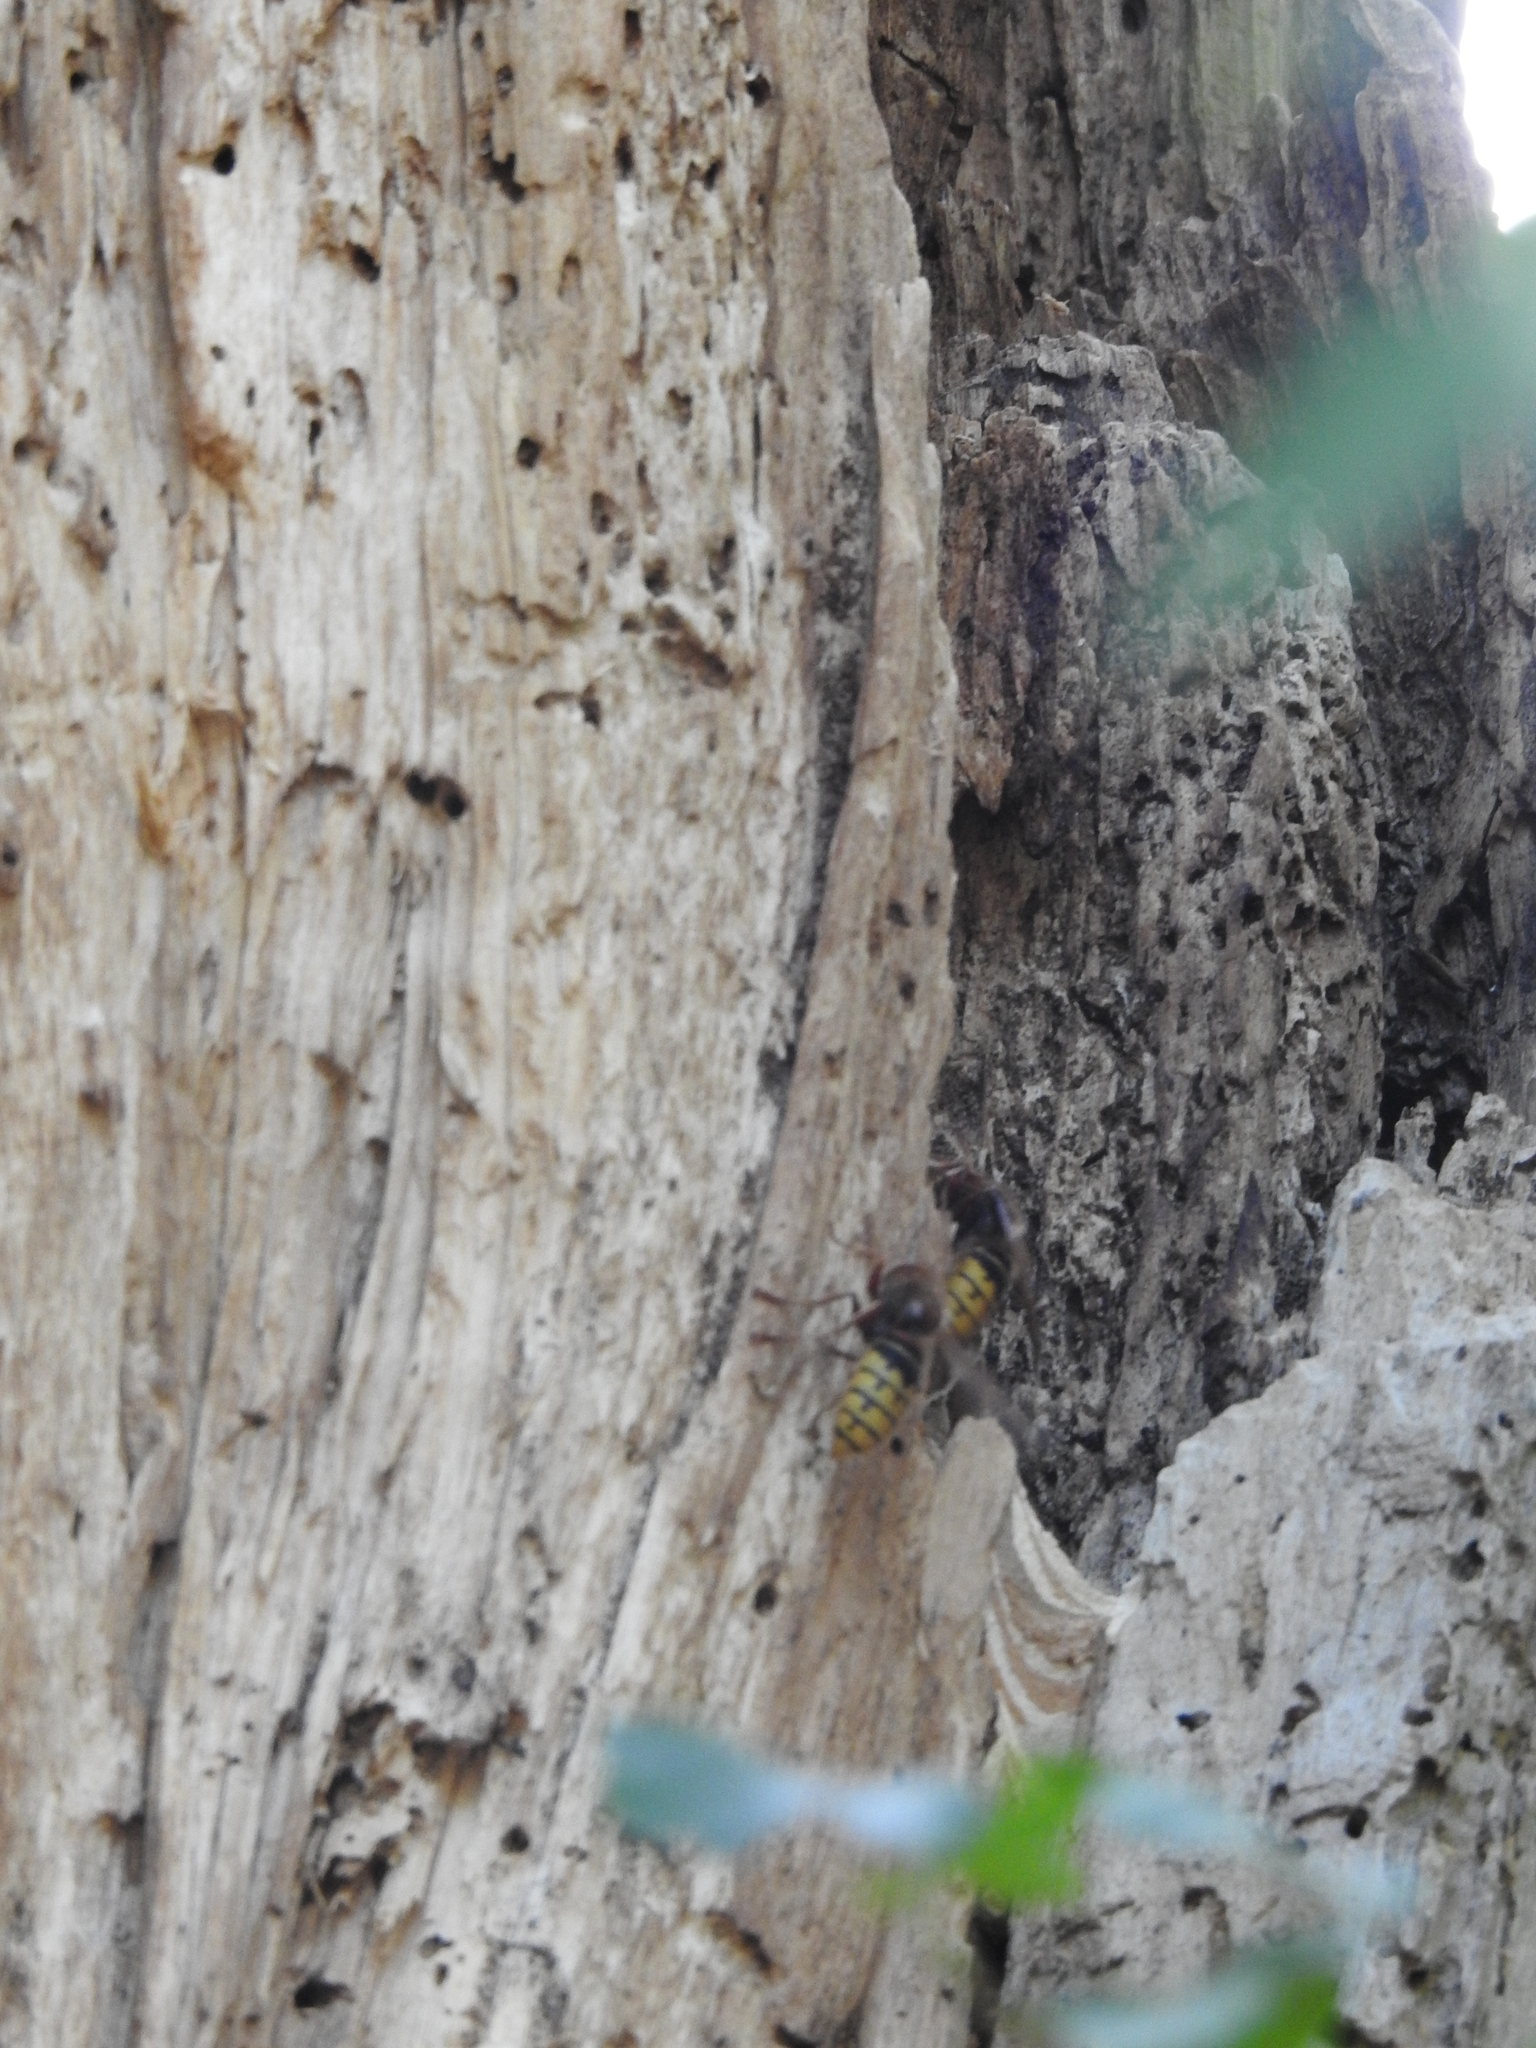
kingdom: Animalia
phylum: Arthropoda
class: Insecta
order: Hymenoptera
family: Vespidae
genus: Vespa
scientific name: Vespa crabro
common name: Hornet
